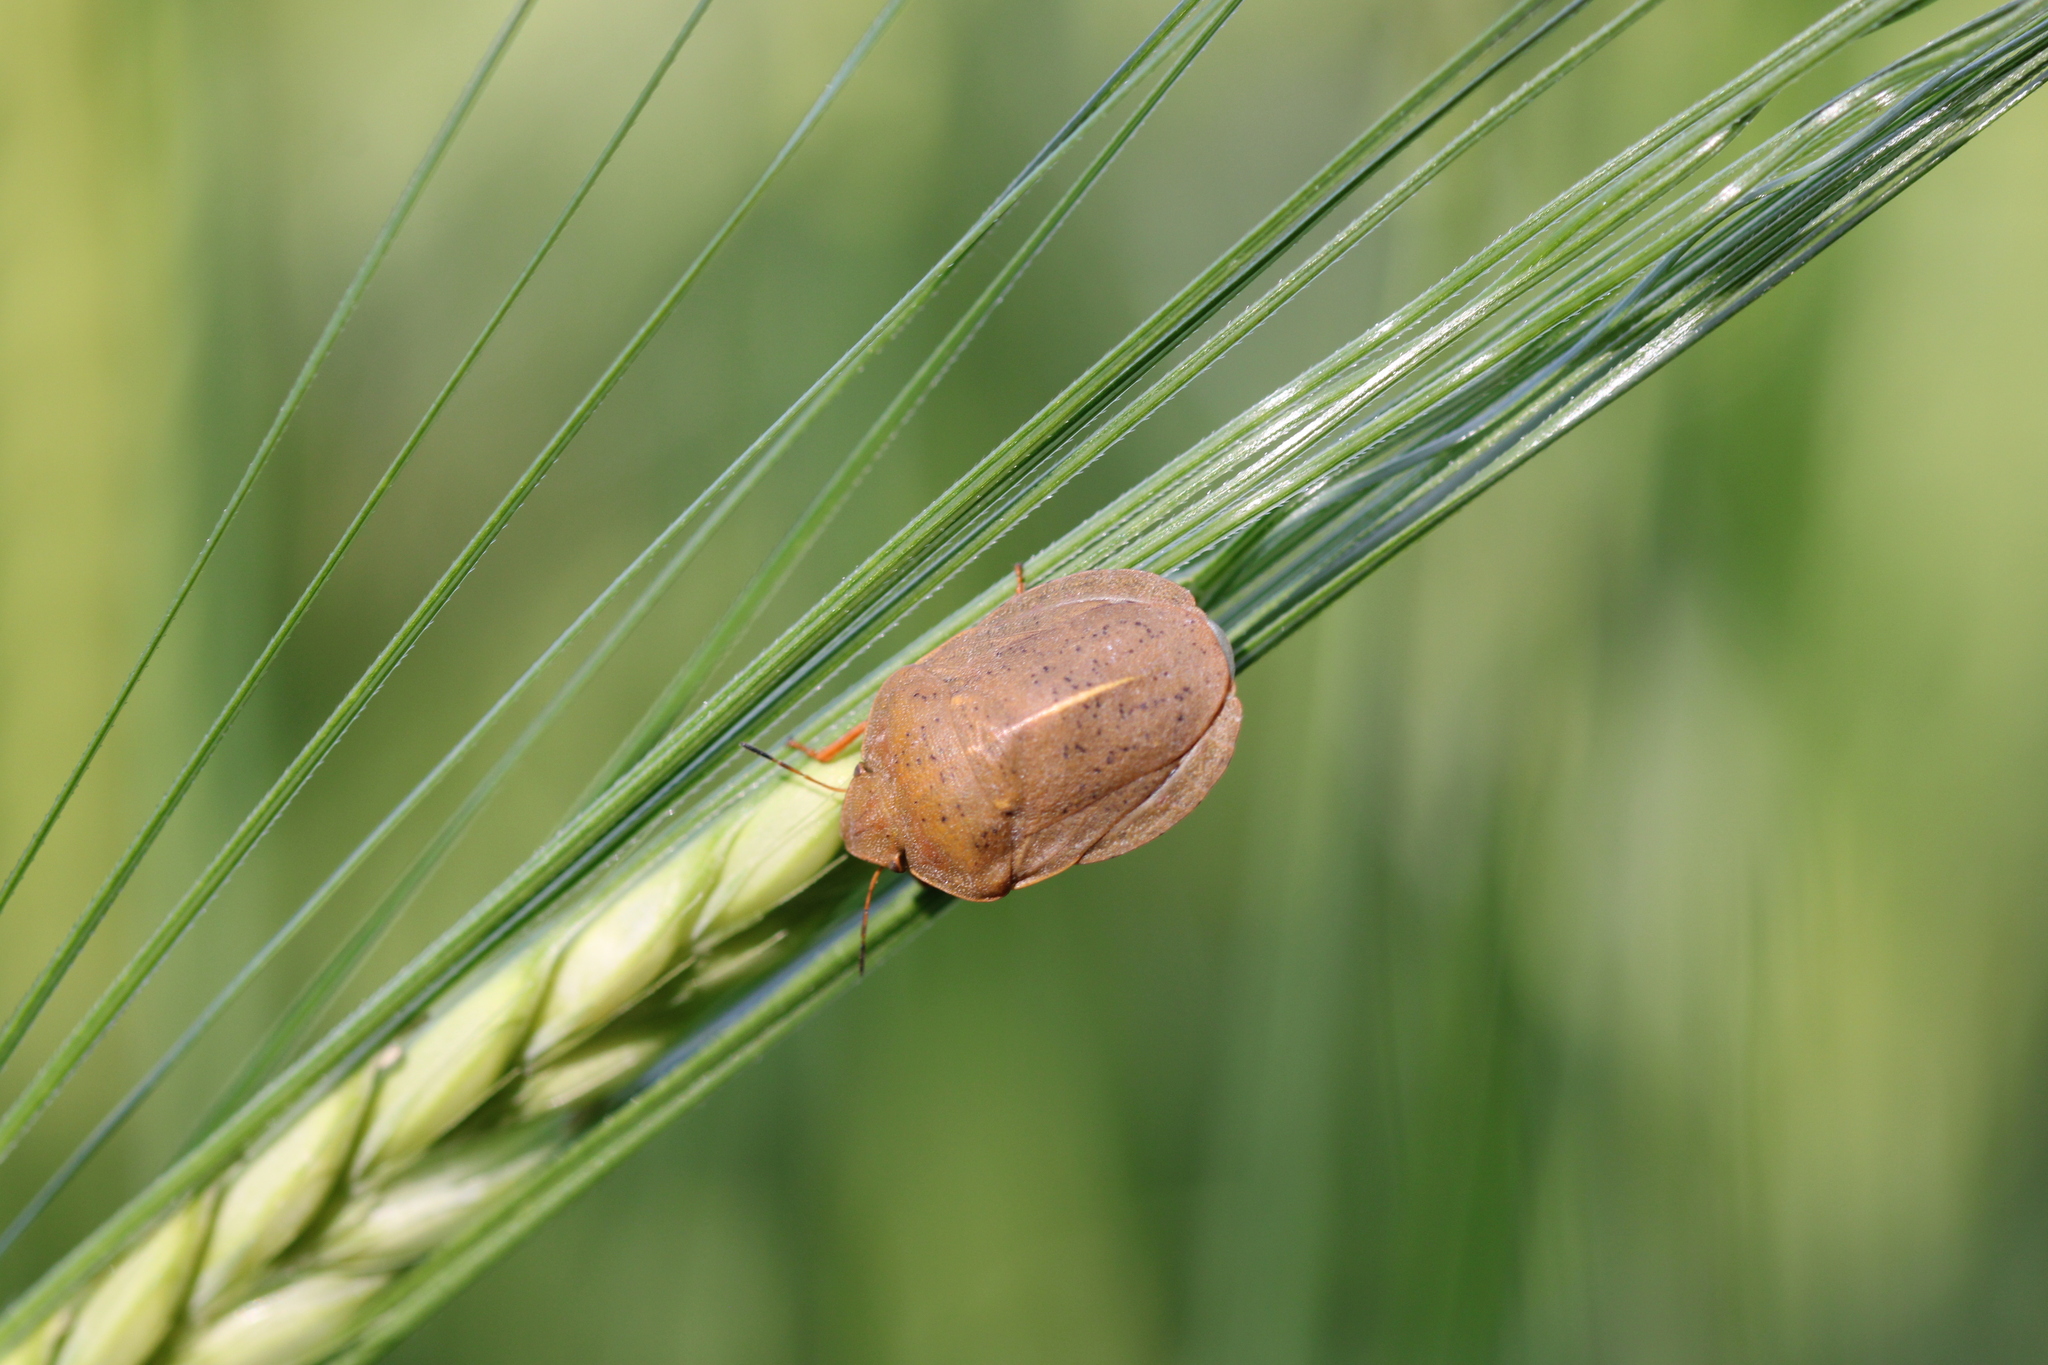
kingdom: Animalia
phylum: Arthropoda
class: Insecta
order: Hemiptera
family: Scutelleridae
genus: Eurygaster
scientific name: Eurygaster austriaca
